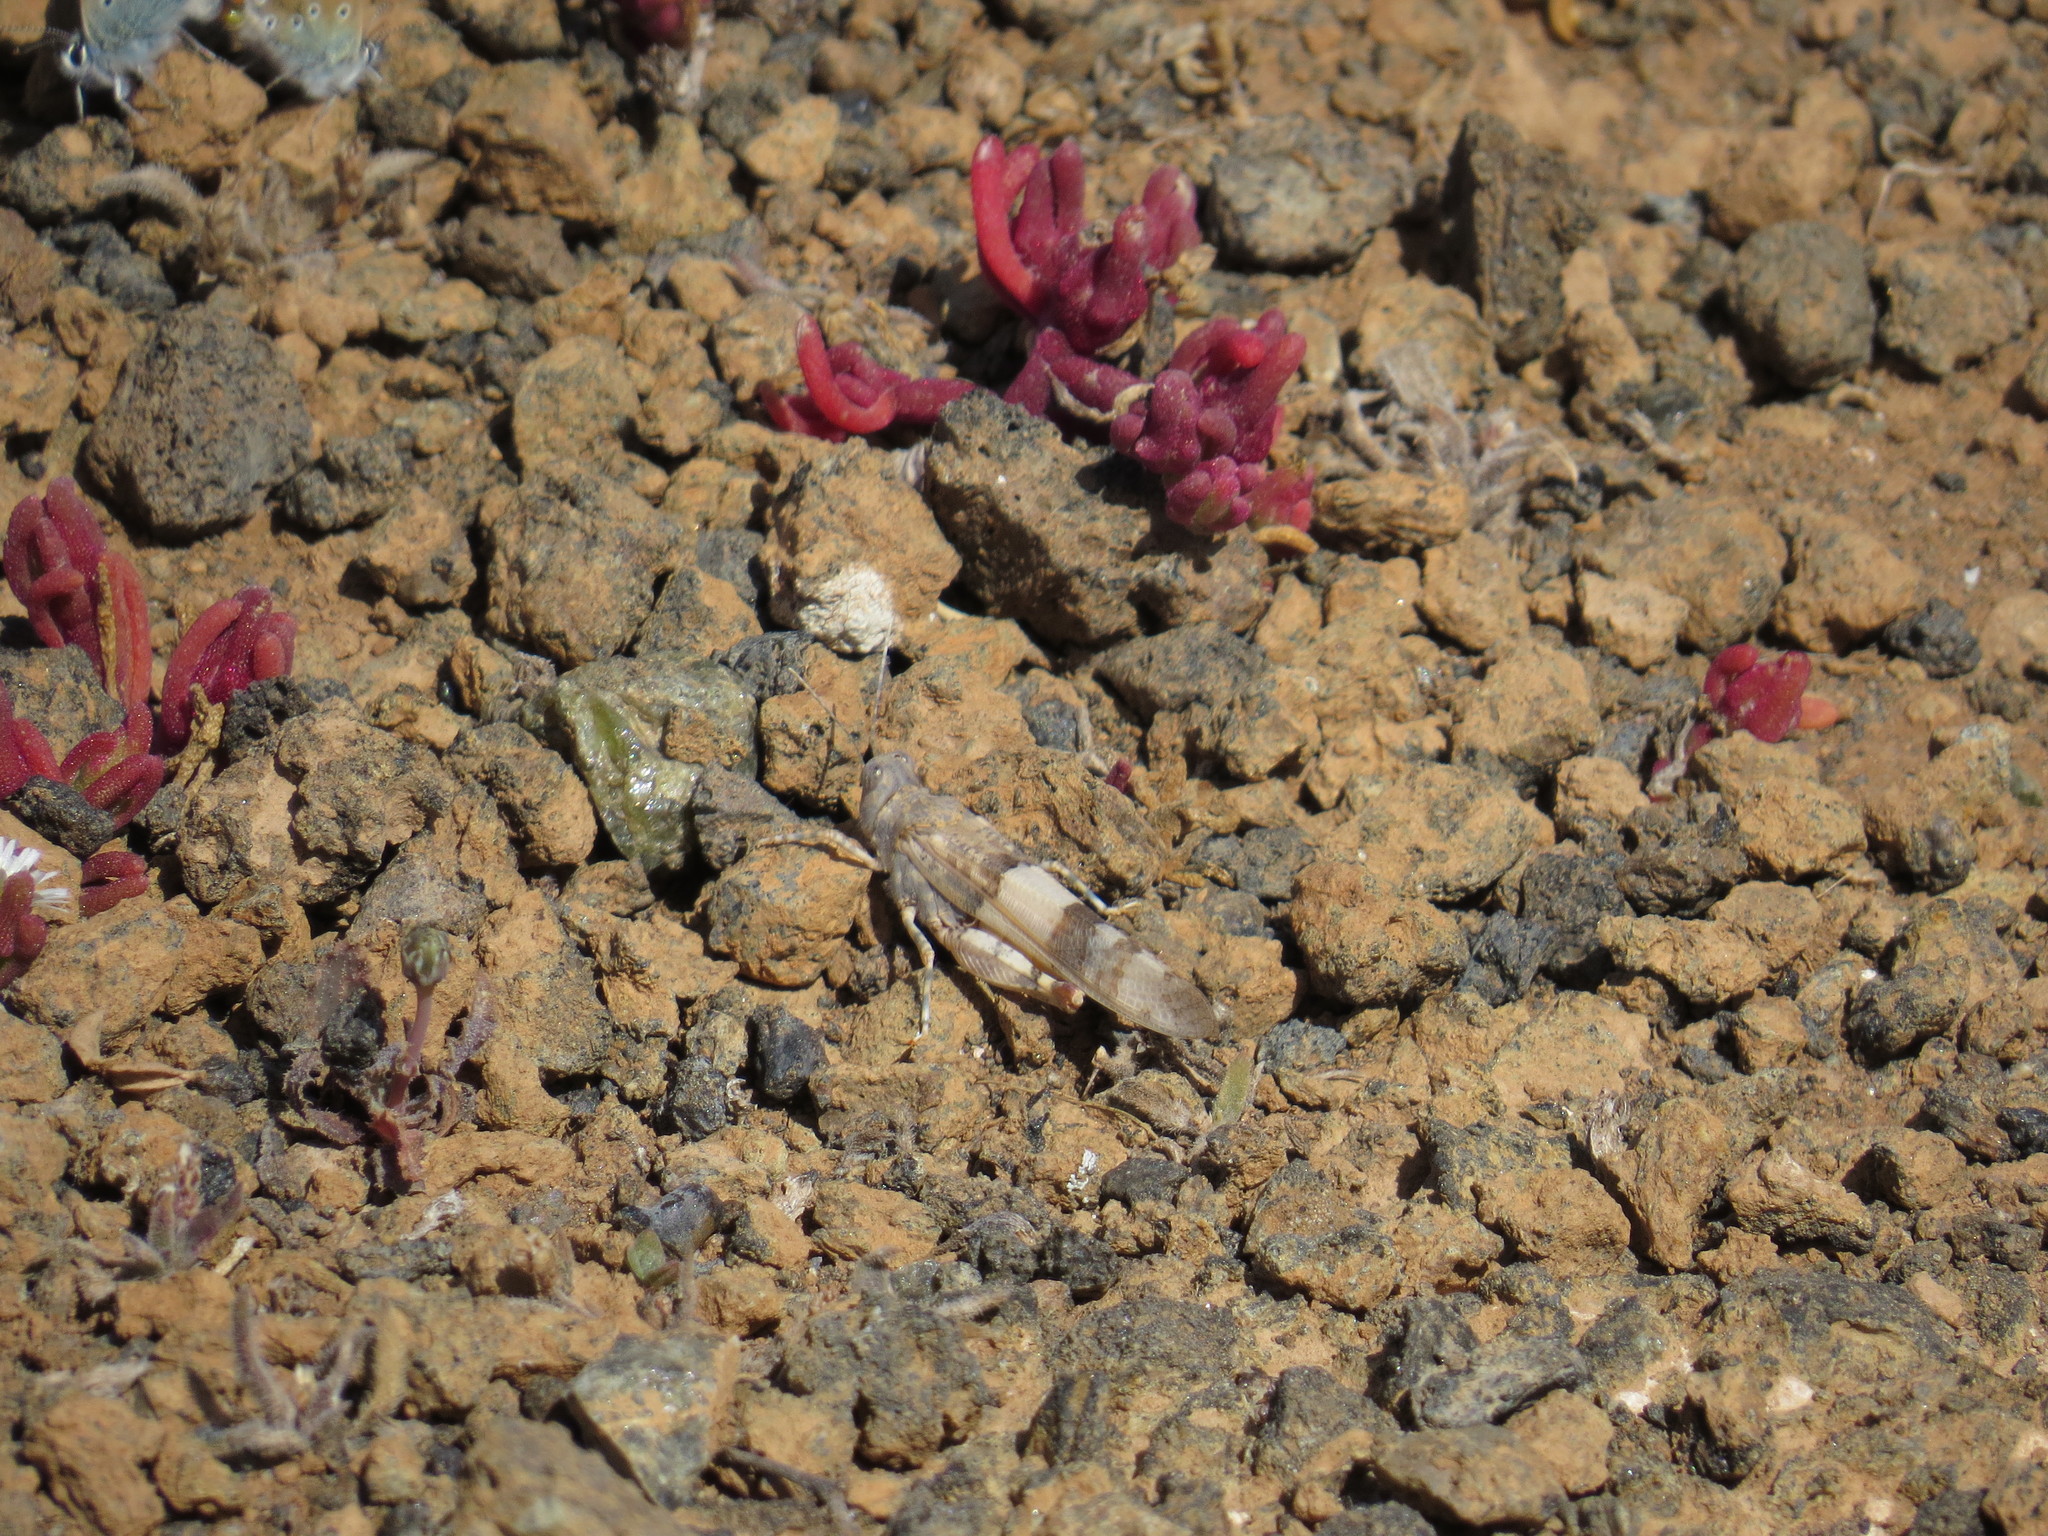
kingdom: Animalia
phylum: Arthropoda
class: Insecta
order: Orthoptera
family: Acrididae
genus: Sphingonotus
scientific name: Sphingonotus savignyi
